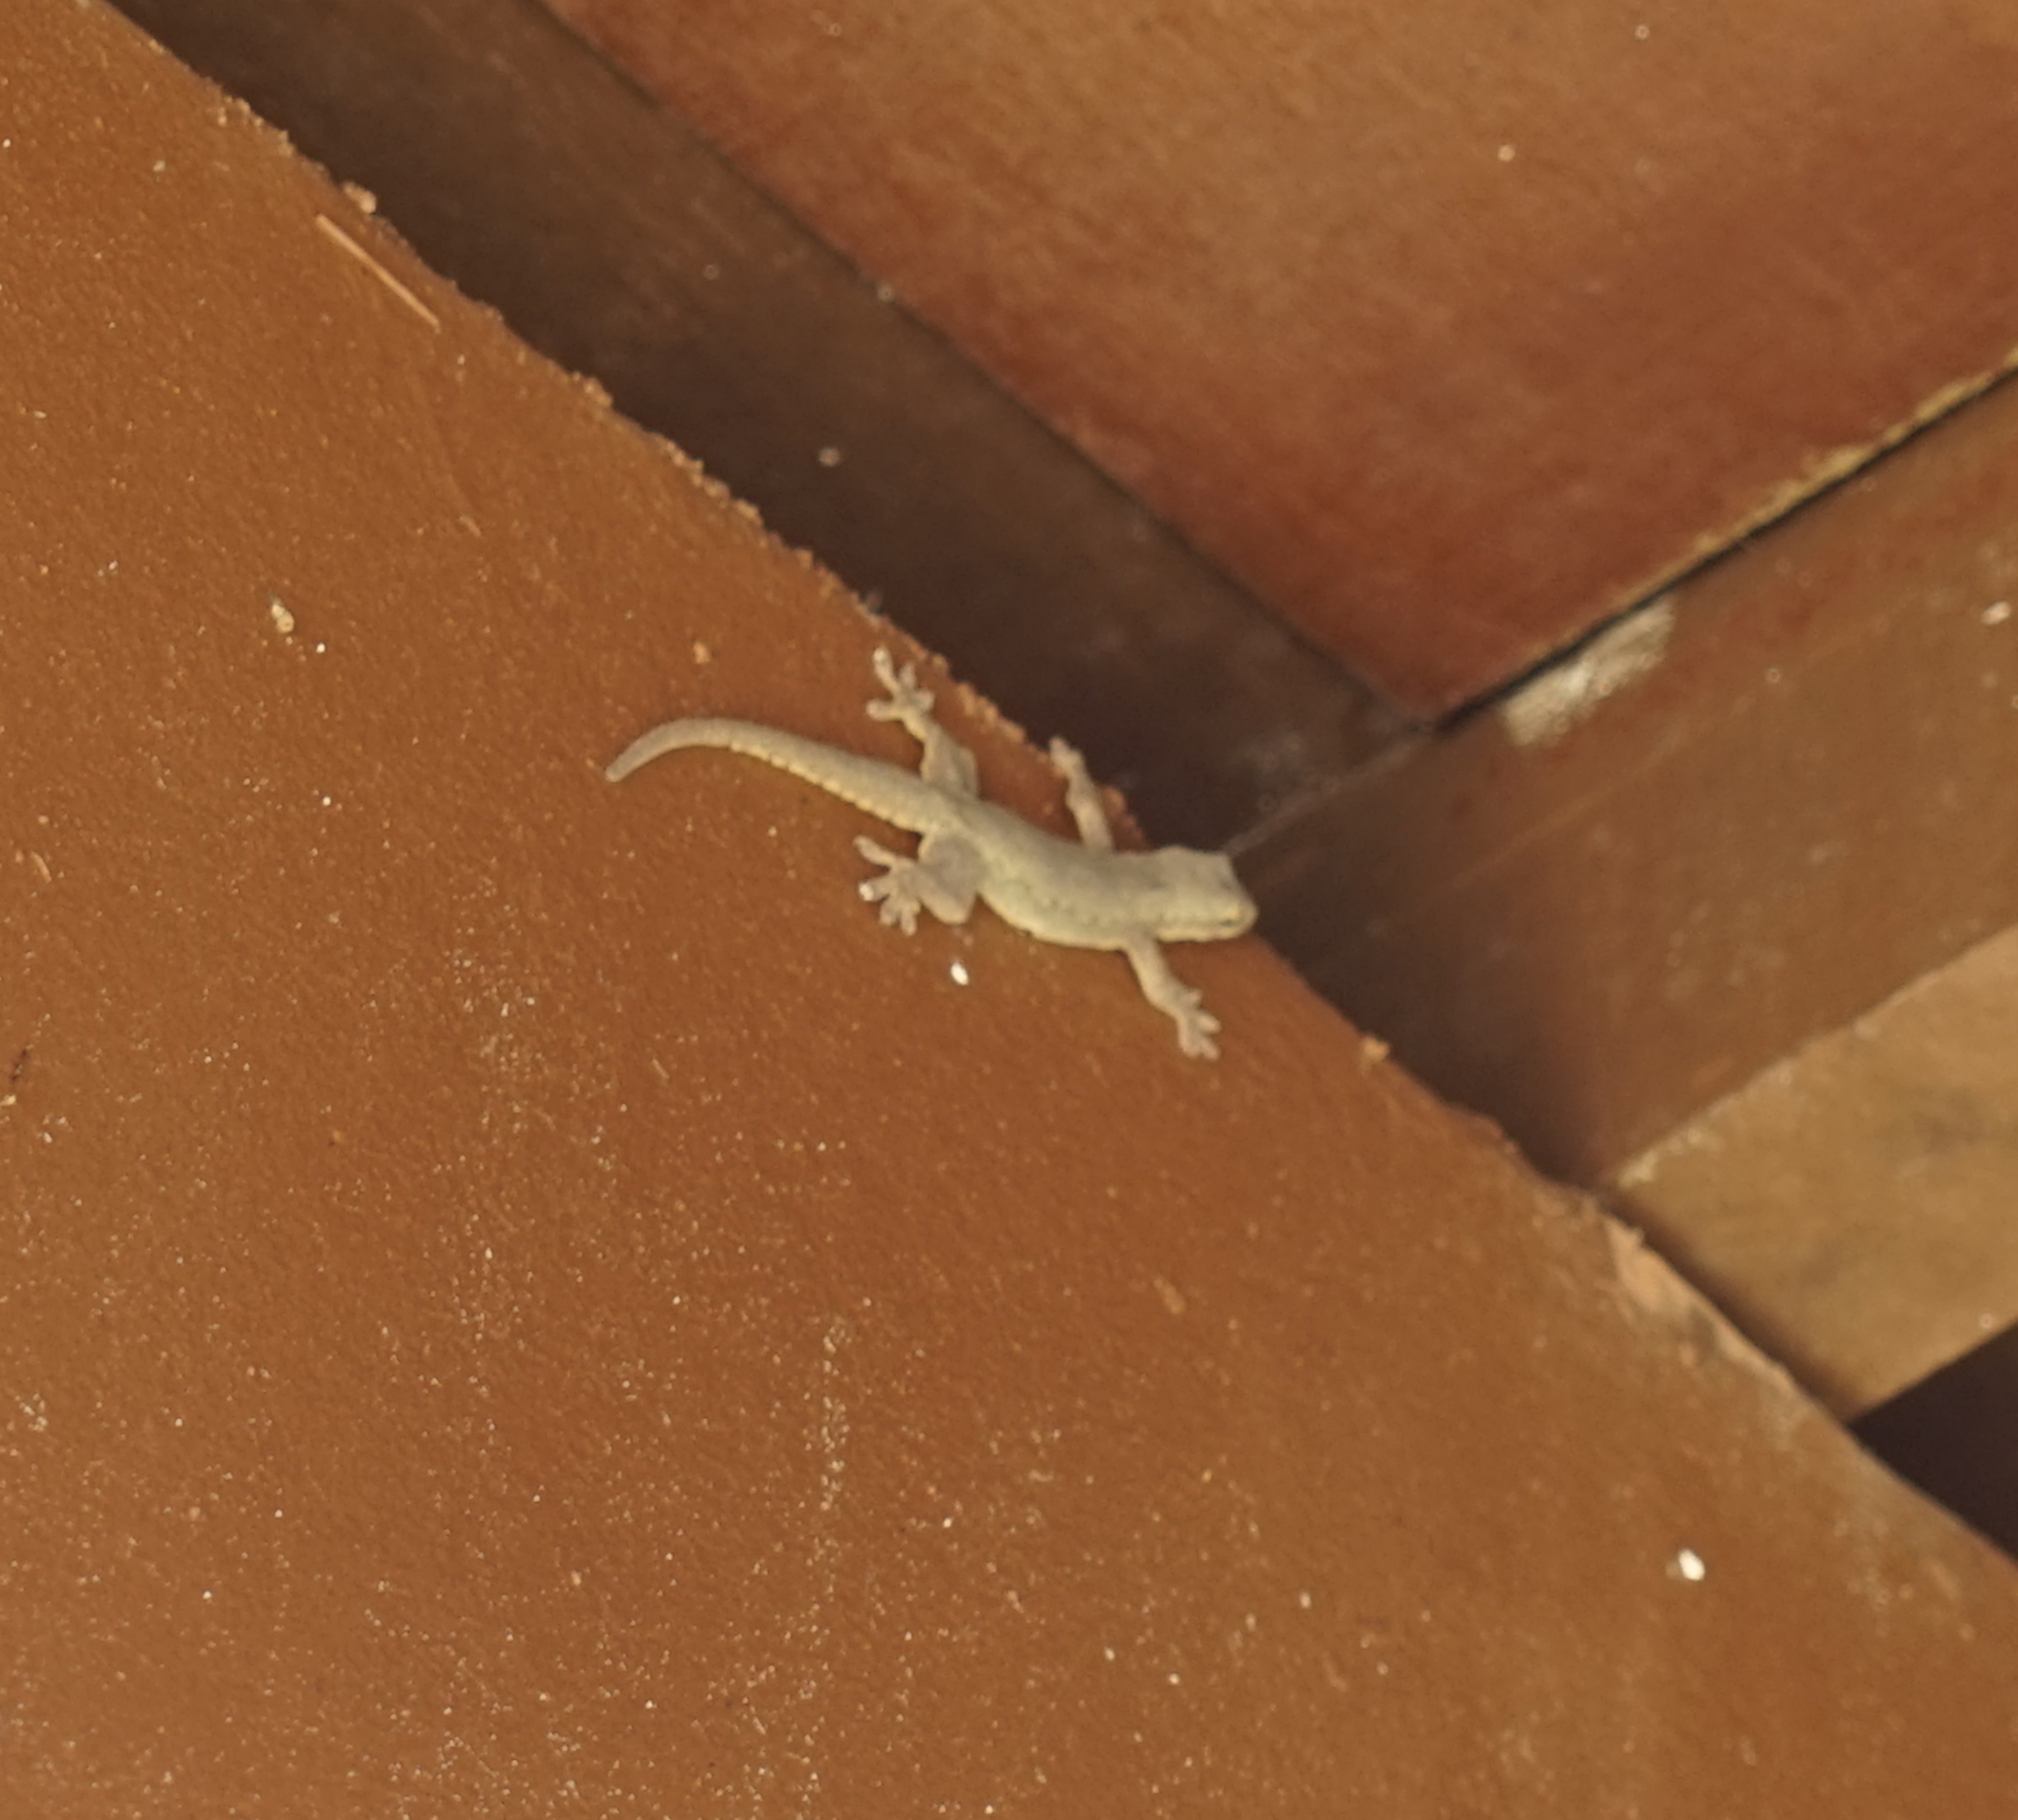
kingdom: Animalia
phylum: Chordata
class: Squamata
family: Gekkonidae
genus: Hemidactylus
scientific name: Hemidactylus platyurus
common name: Flat-tailed house gecko
